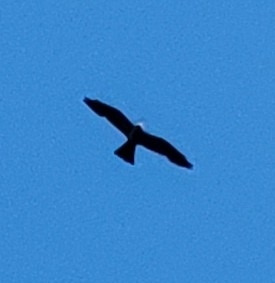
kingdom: Animalia
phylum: Chordata
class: Aves
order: Accipitriformes
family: Accipitridae
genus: Ictinia
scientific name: Ictinia mississippiensis
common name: Mississippi kite
